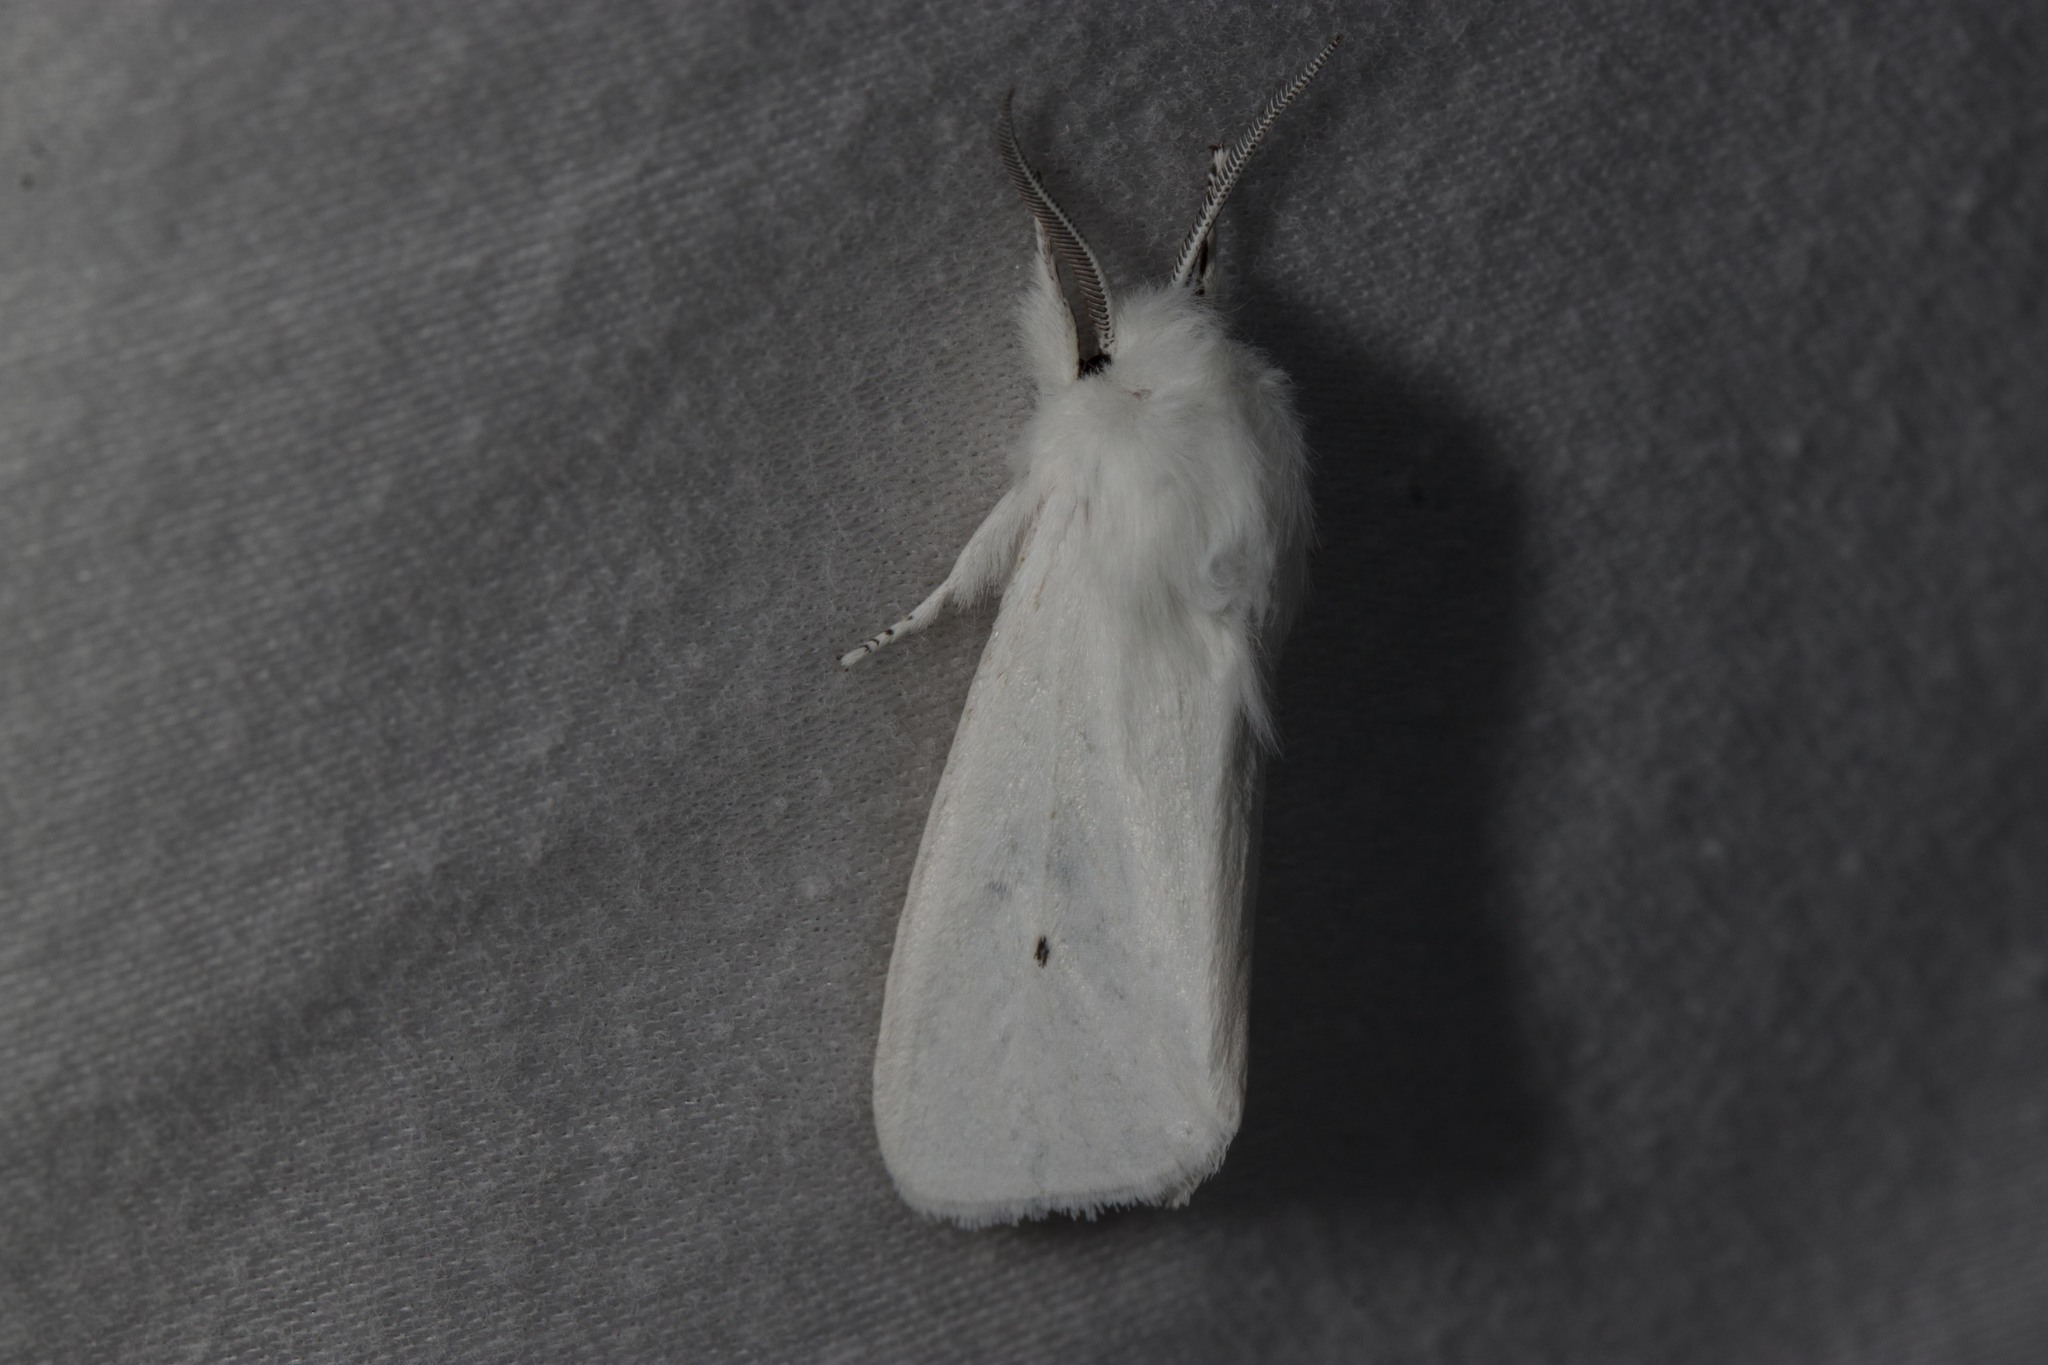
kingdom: Animalia
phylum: Arthropoda
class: Insecta
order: Lepidoptera
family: Erebidae
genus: Spilosoma
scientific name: Spilosoma virginica
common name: Virginia tiger moth
